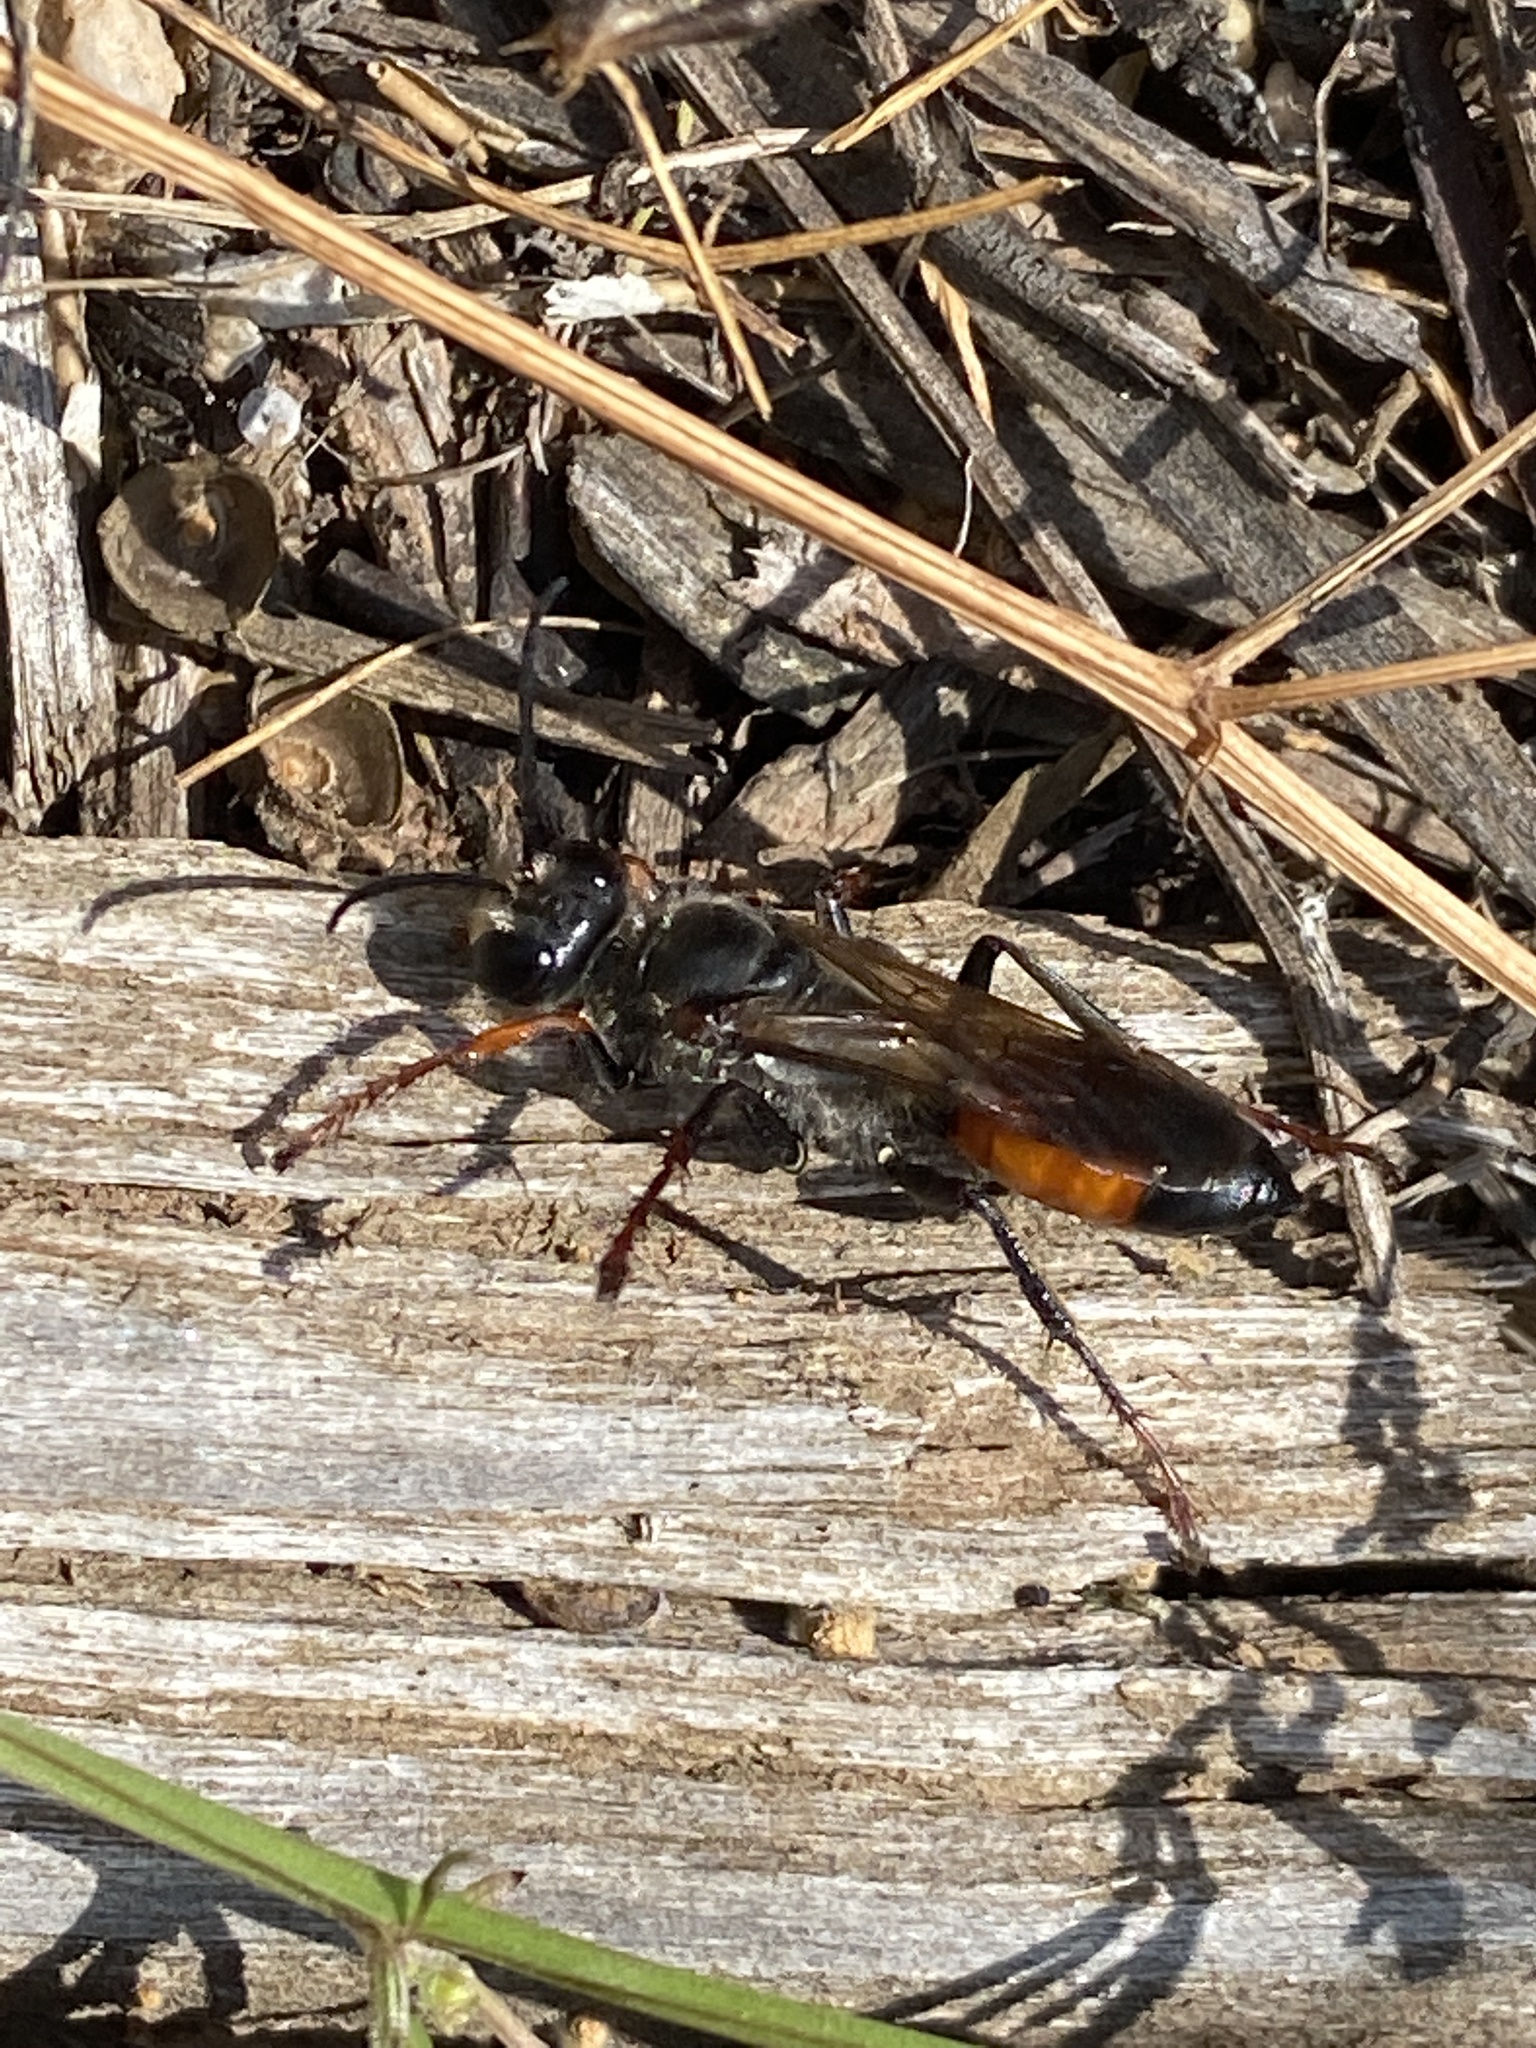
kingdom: Animalia
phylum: Arthropoda
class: Insecta
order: Hymenoptera
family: Sphecidae
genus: Sphex
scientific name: Sphex funerarius
